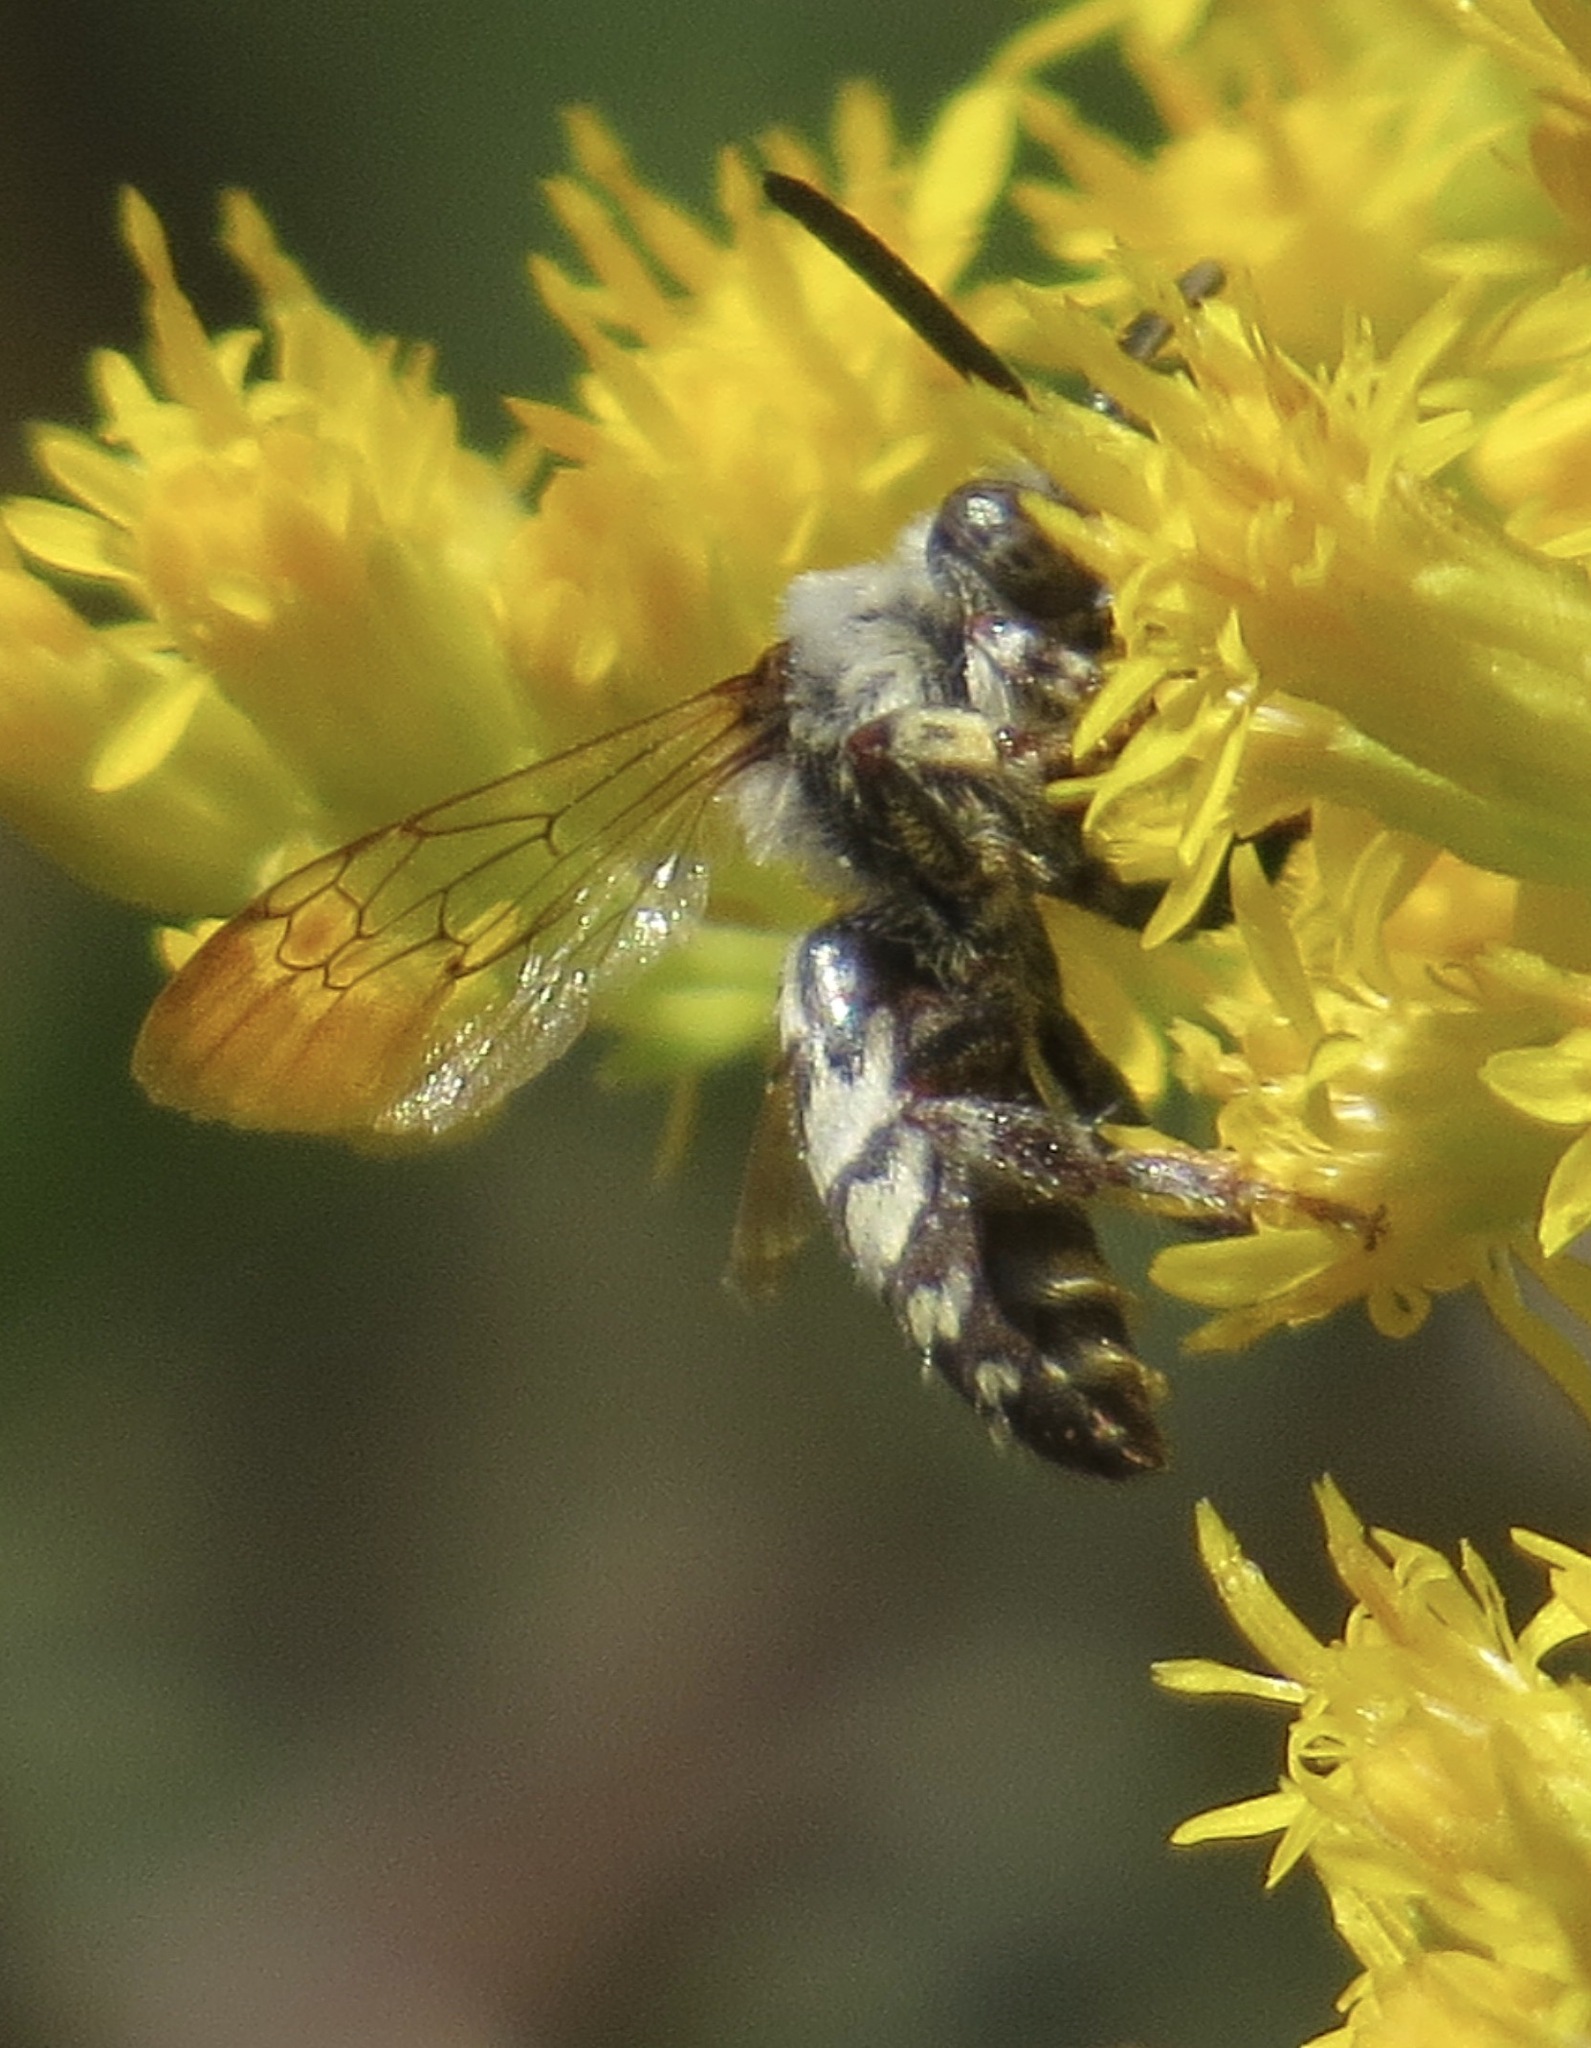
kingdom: Animalia
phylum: Arthropoda
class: Insecta
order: Hymenoptera
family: Apidae
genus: Brachymelecta
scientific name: Brachymelecta californica
